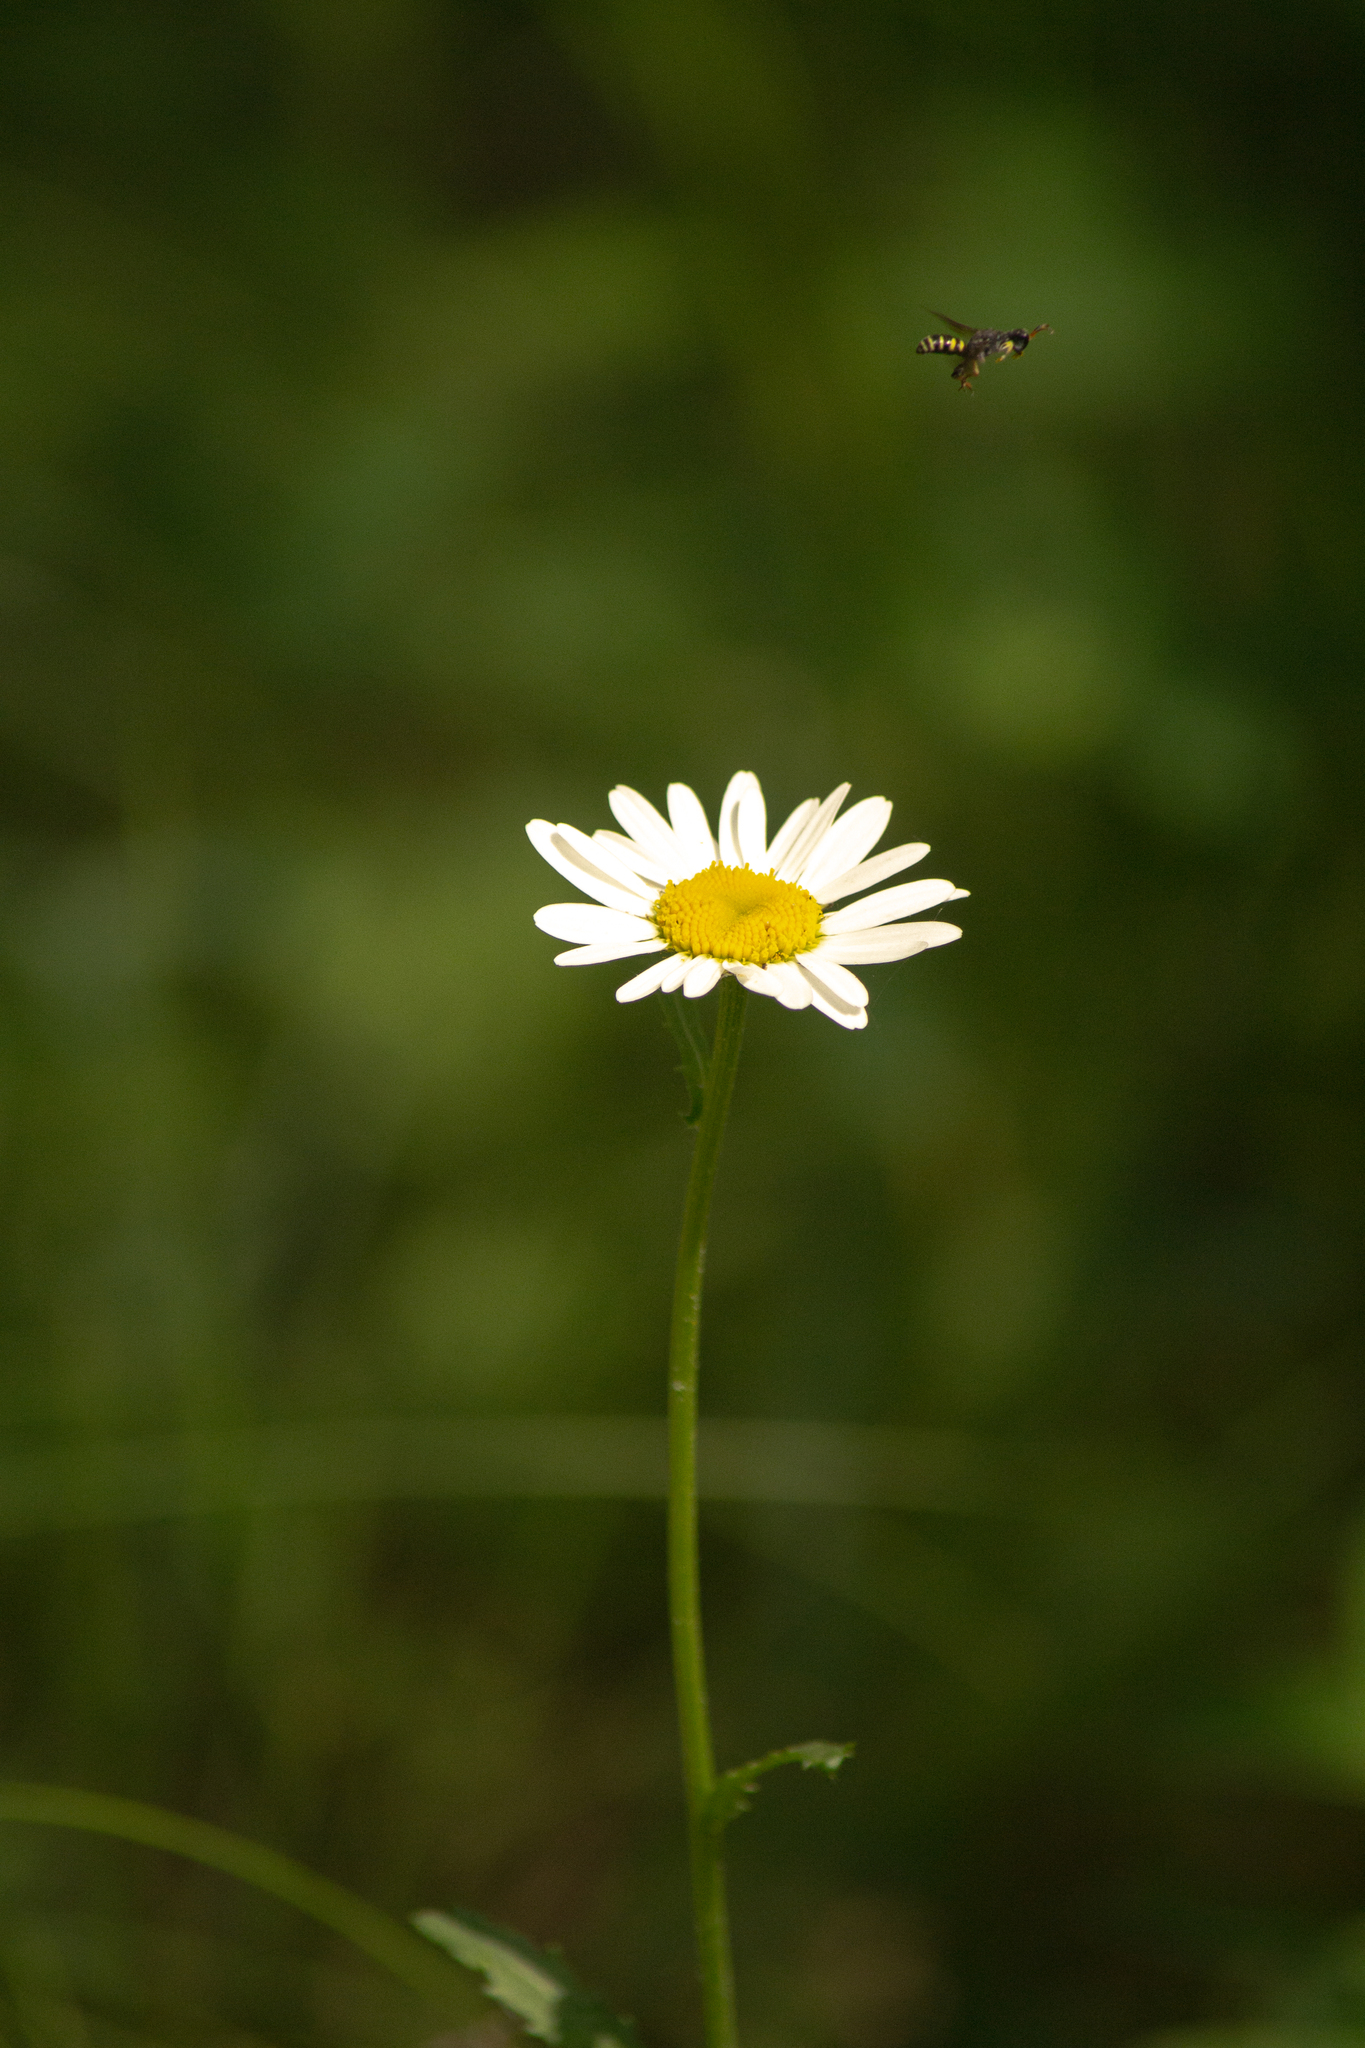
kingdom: Plantae
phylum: Tracheophyta
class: Magnoliopsida
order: Asterales
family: Asteraceae
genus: Leucanthemum
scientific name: Leucanthemum ircutianum
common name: Daisy
